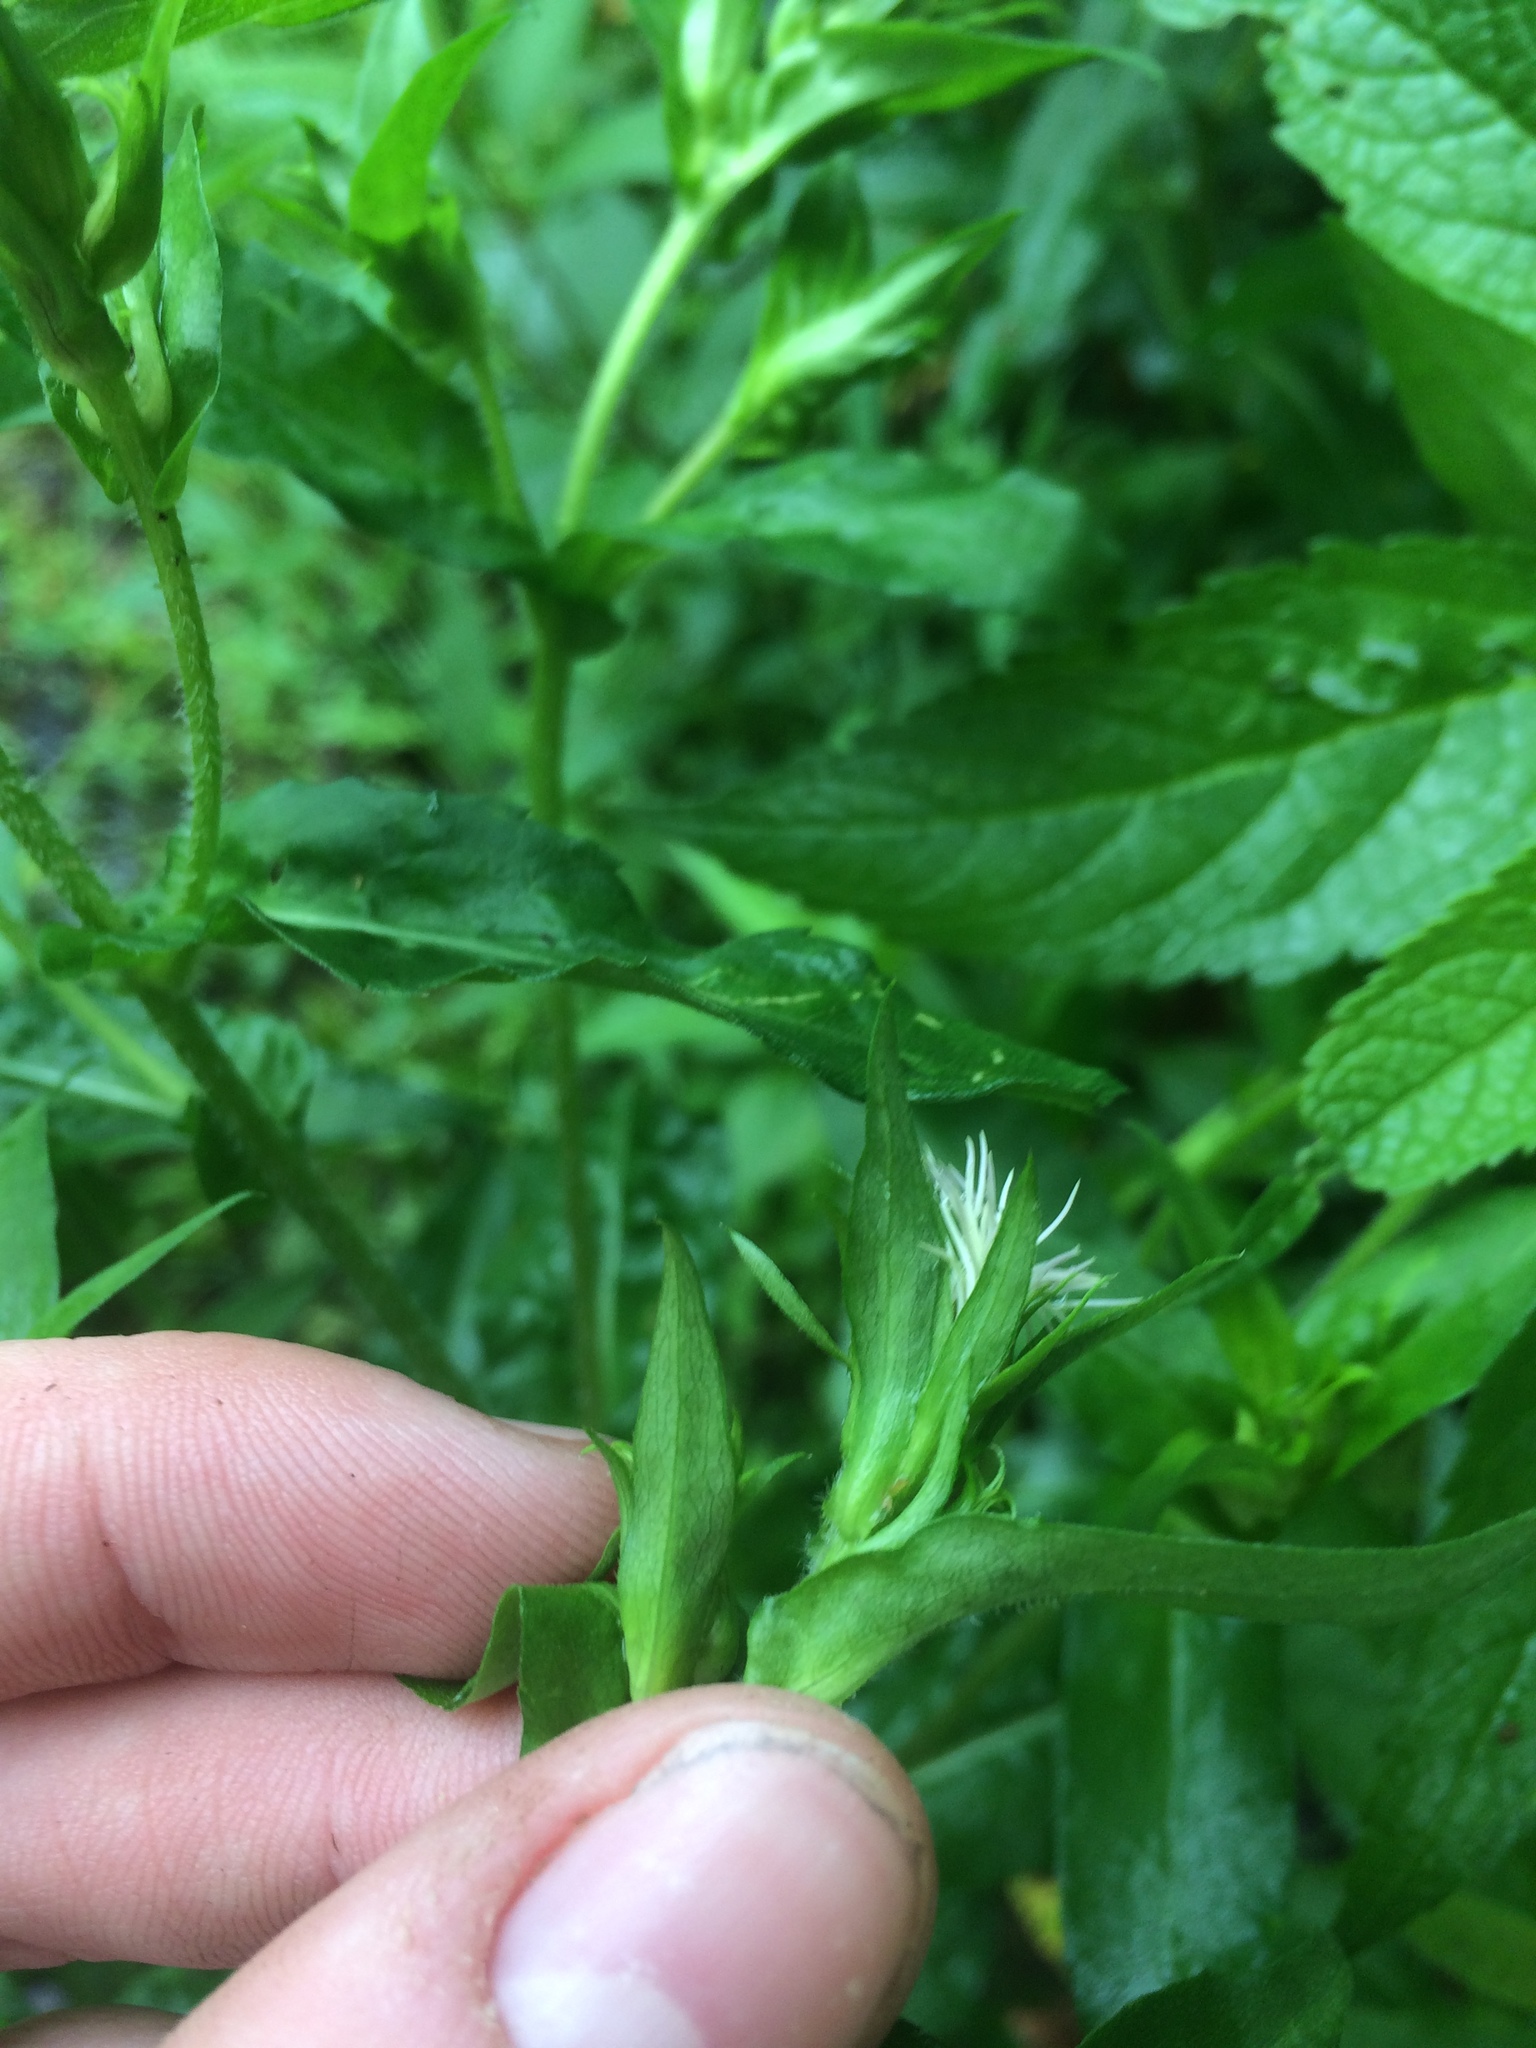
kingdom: Plantae
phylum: Tracheophyta
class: Magnoliopsida
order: Asterales
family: Asteraceae
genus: Symphyotrichum
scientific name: Symphyotrichum puniceum
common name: Bog aster
